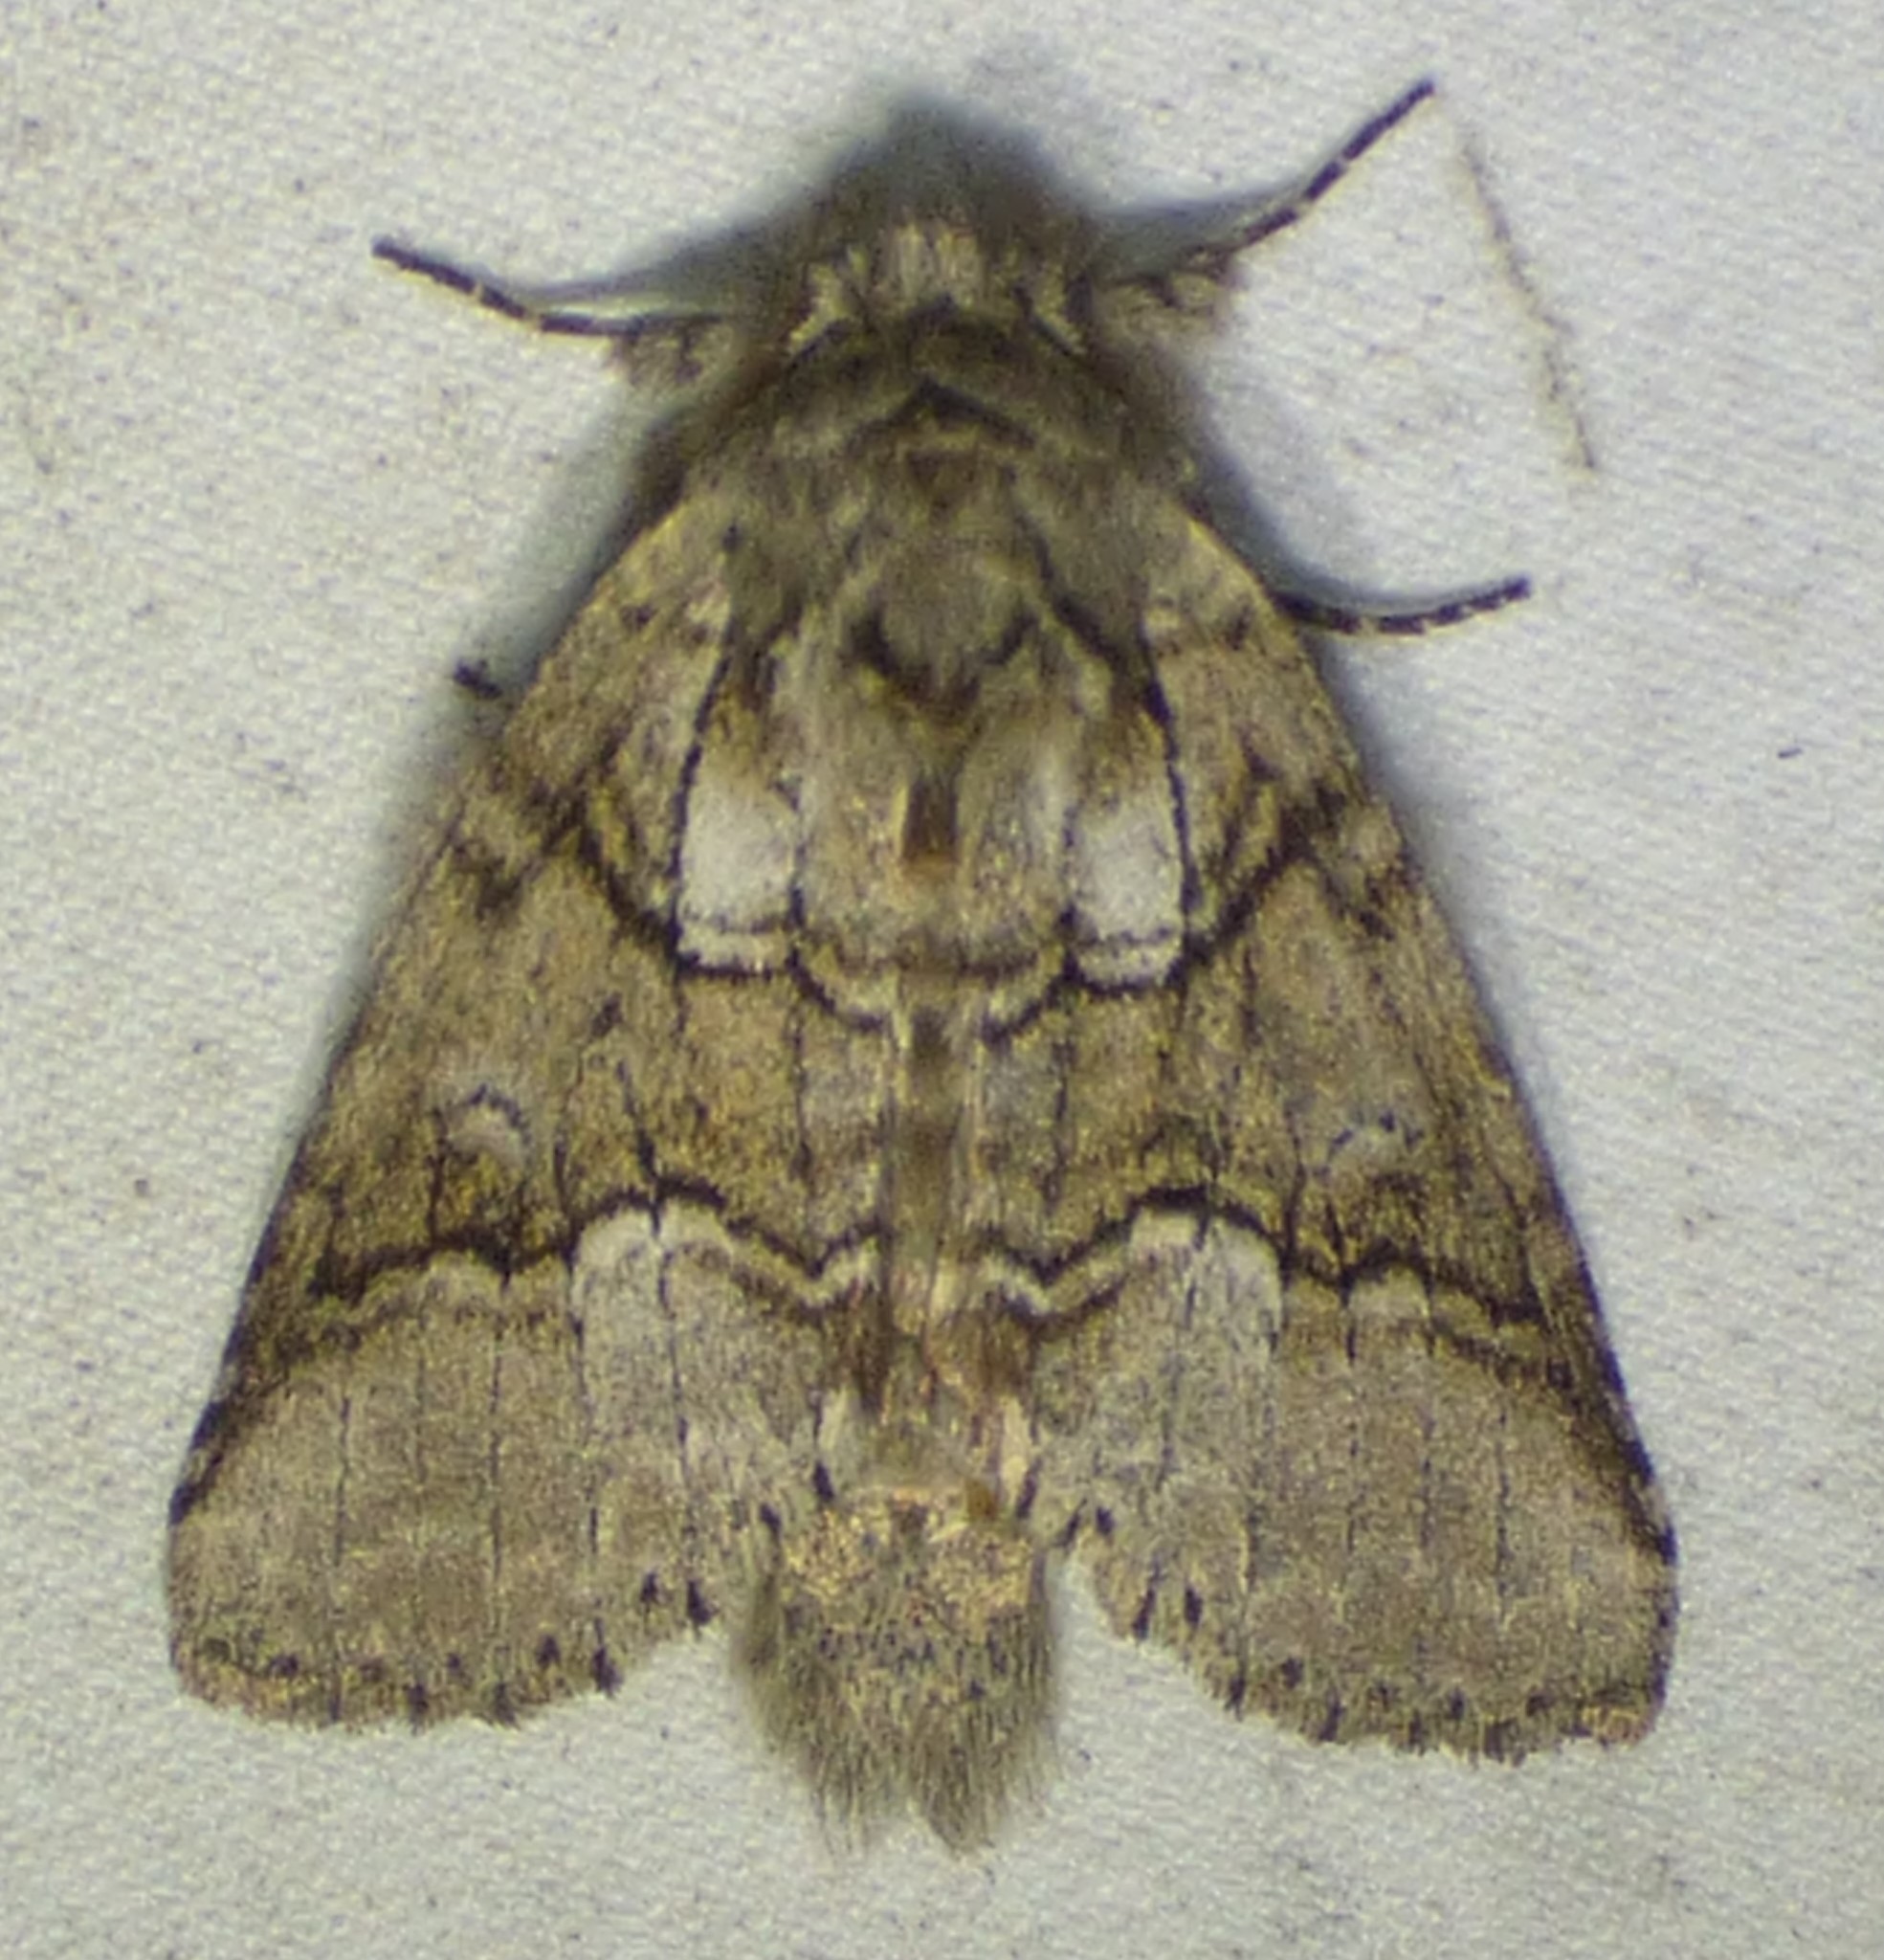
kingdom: Animalia
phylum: Arthropoda
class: Insecta
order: Lepidoptera
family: Notodontidae
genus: Lochmaeus
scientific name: Lochmaeus bilineata
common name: Double-lined prominent
